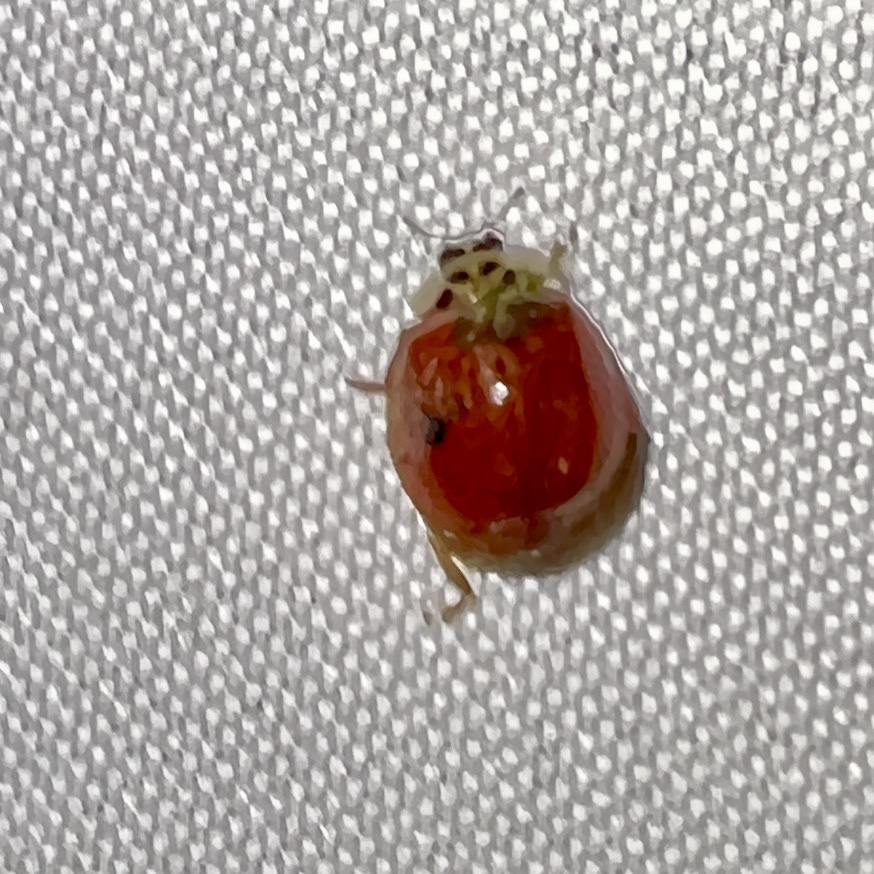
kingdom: Animalia
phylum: Arthropoda
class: Insecta
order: Coleoptera
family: Coccinellidae
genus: Harmonia
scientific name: Harmonia axyridis
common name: Harlequin ladybird
